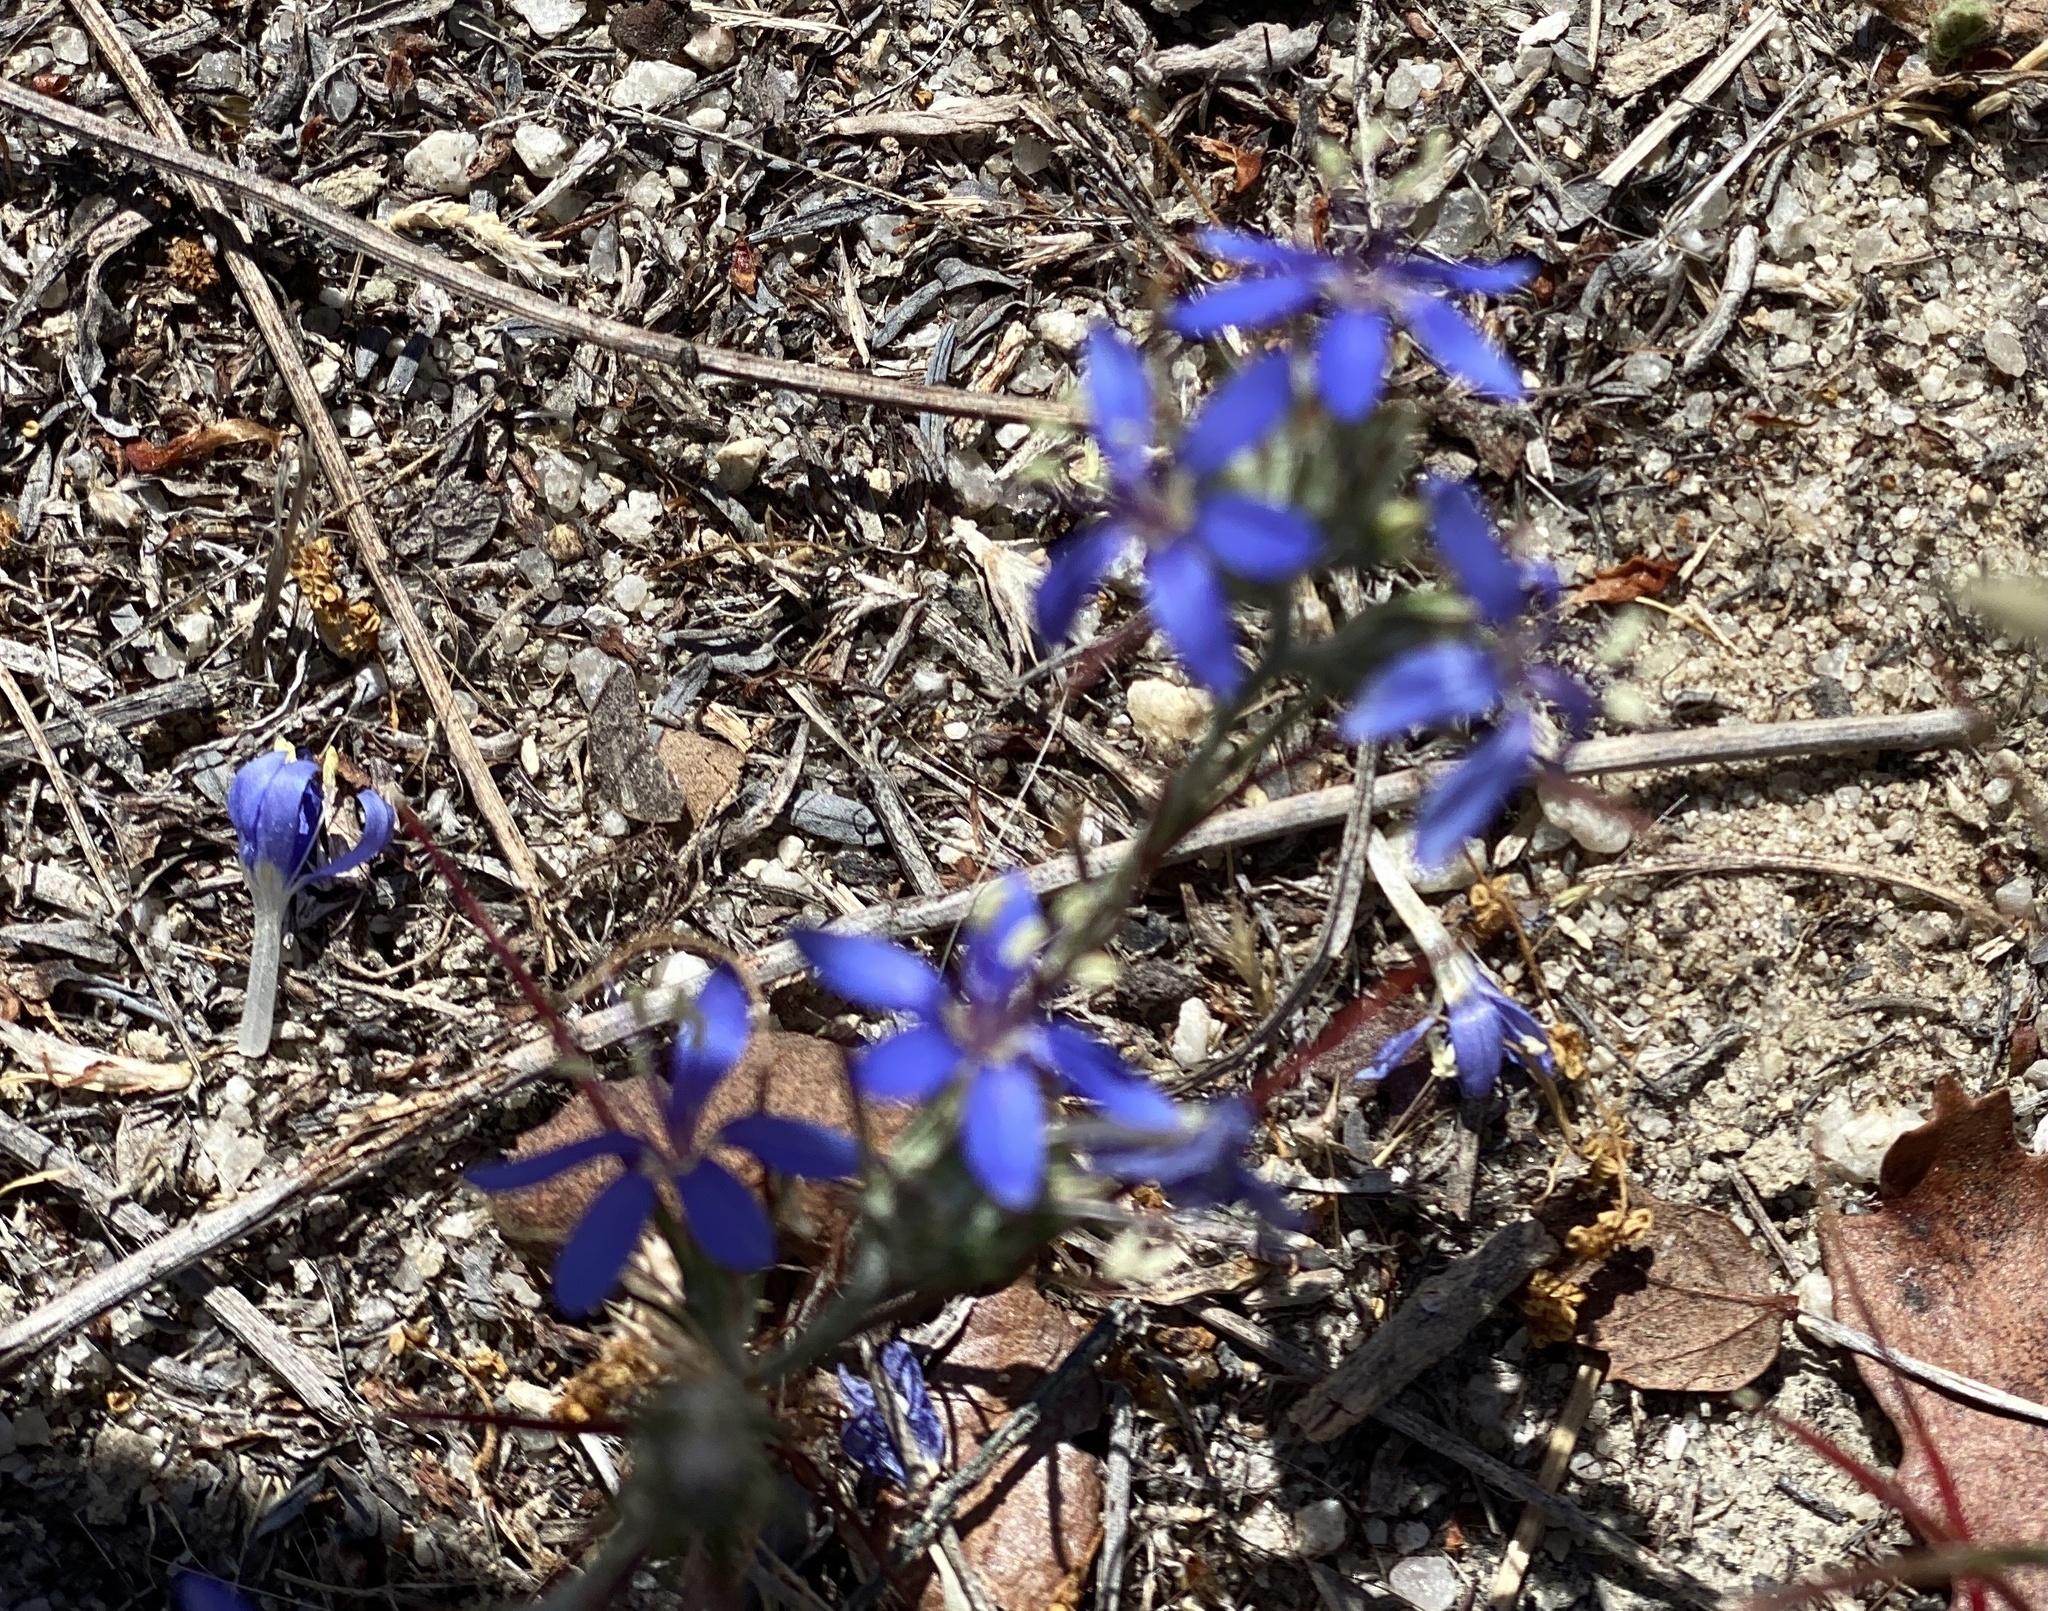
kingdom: Plantae
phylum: Tracheophyta
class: Magnoliopsida
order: Ericales
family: Polemoniaceae
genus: Eriastrum
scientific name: Eriastrum sapphirinum
